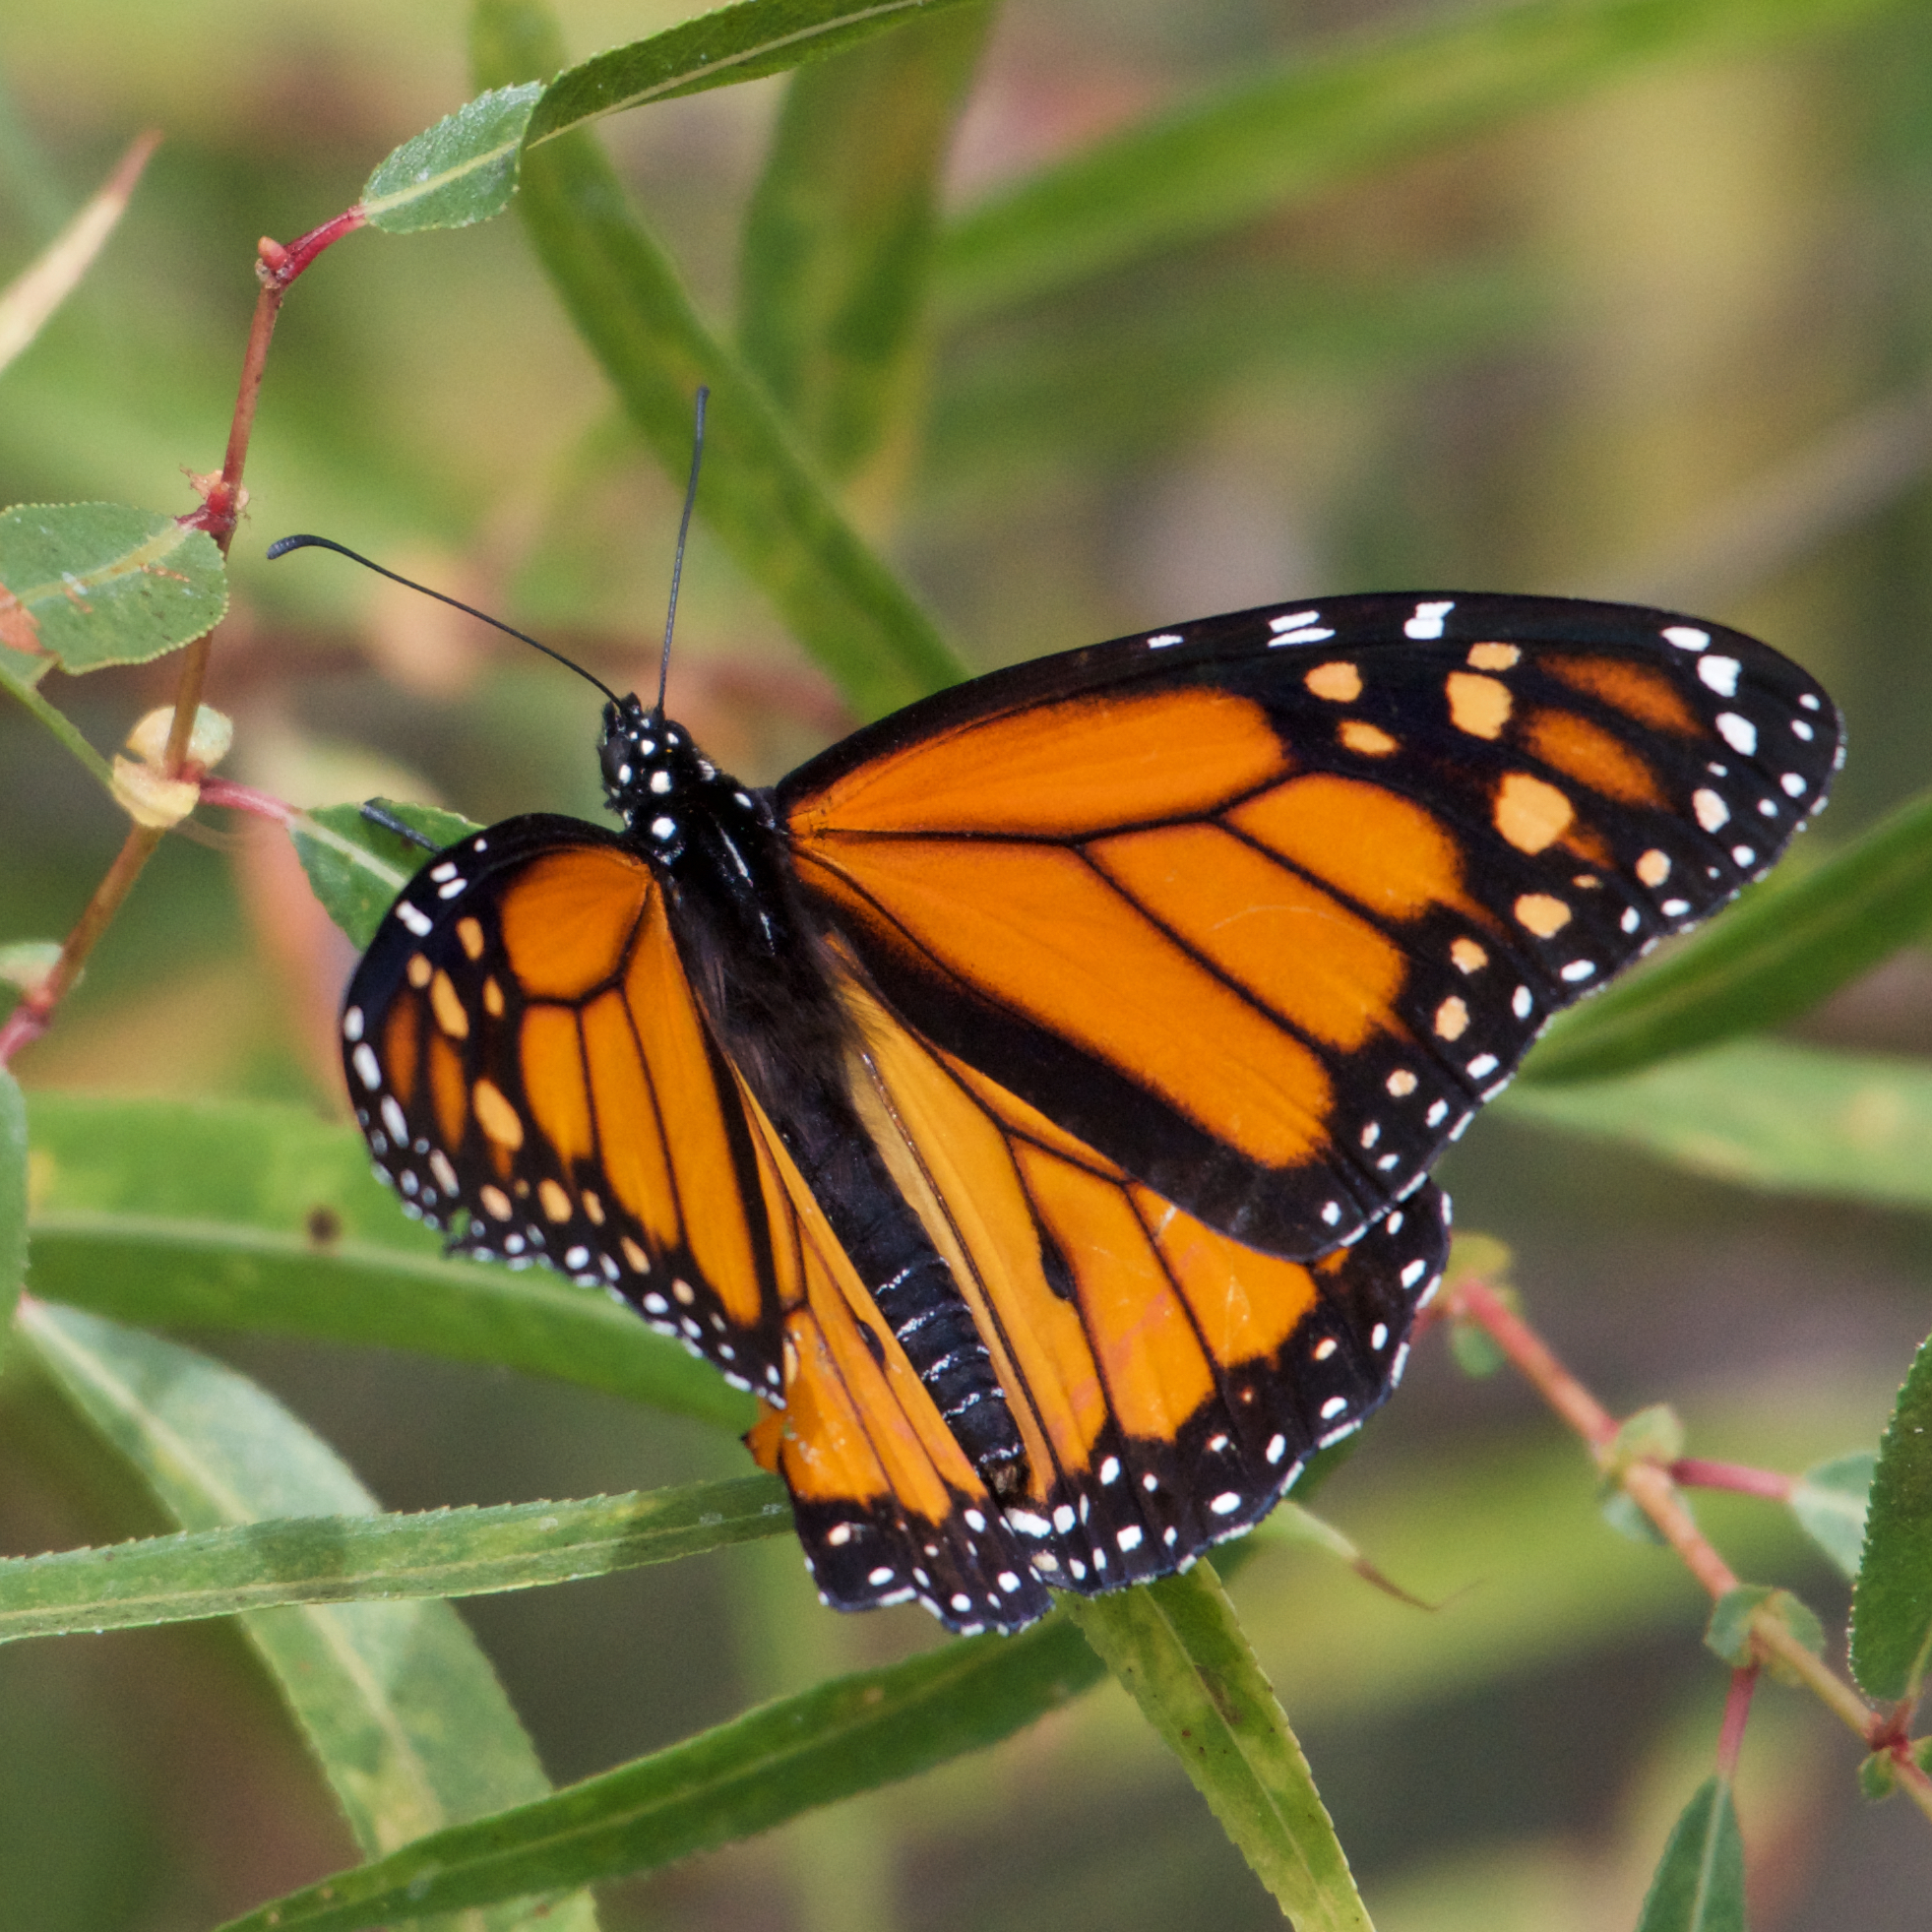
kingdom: Animalia
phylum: Arthropoda
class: Insecta
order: Lepidoptera
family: Nymphalidae
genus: Danaus
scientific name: Danaus plexippus
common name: Monarch
